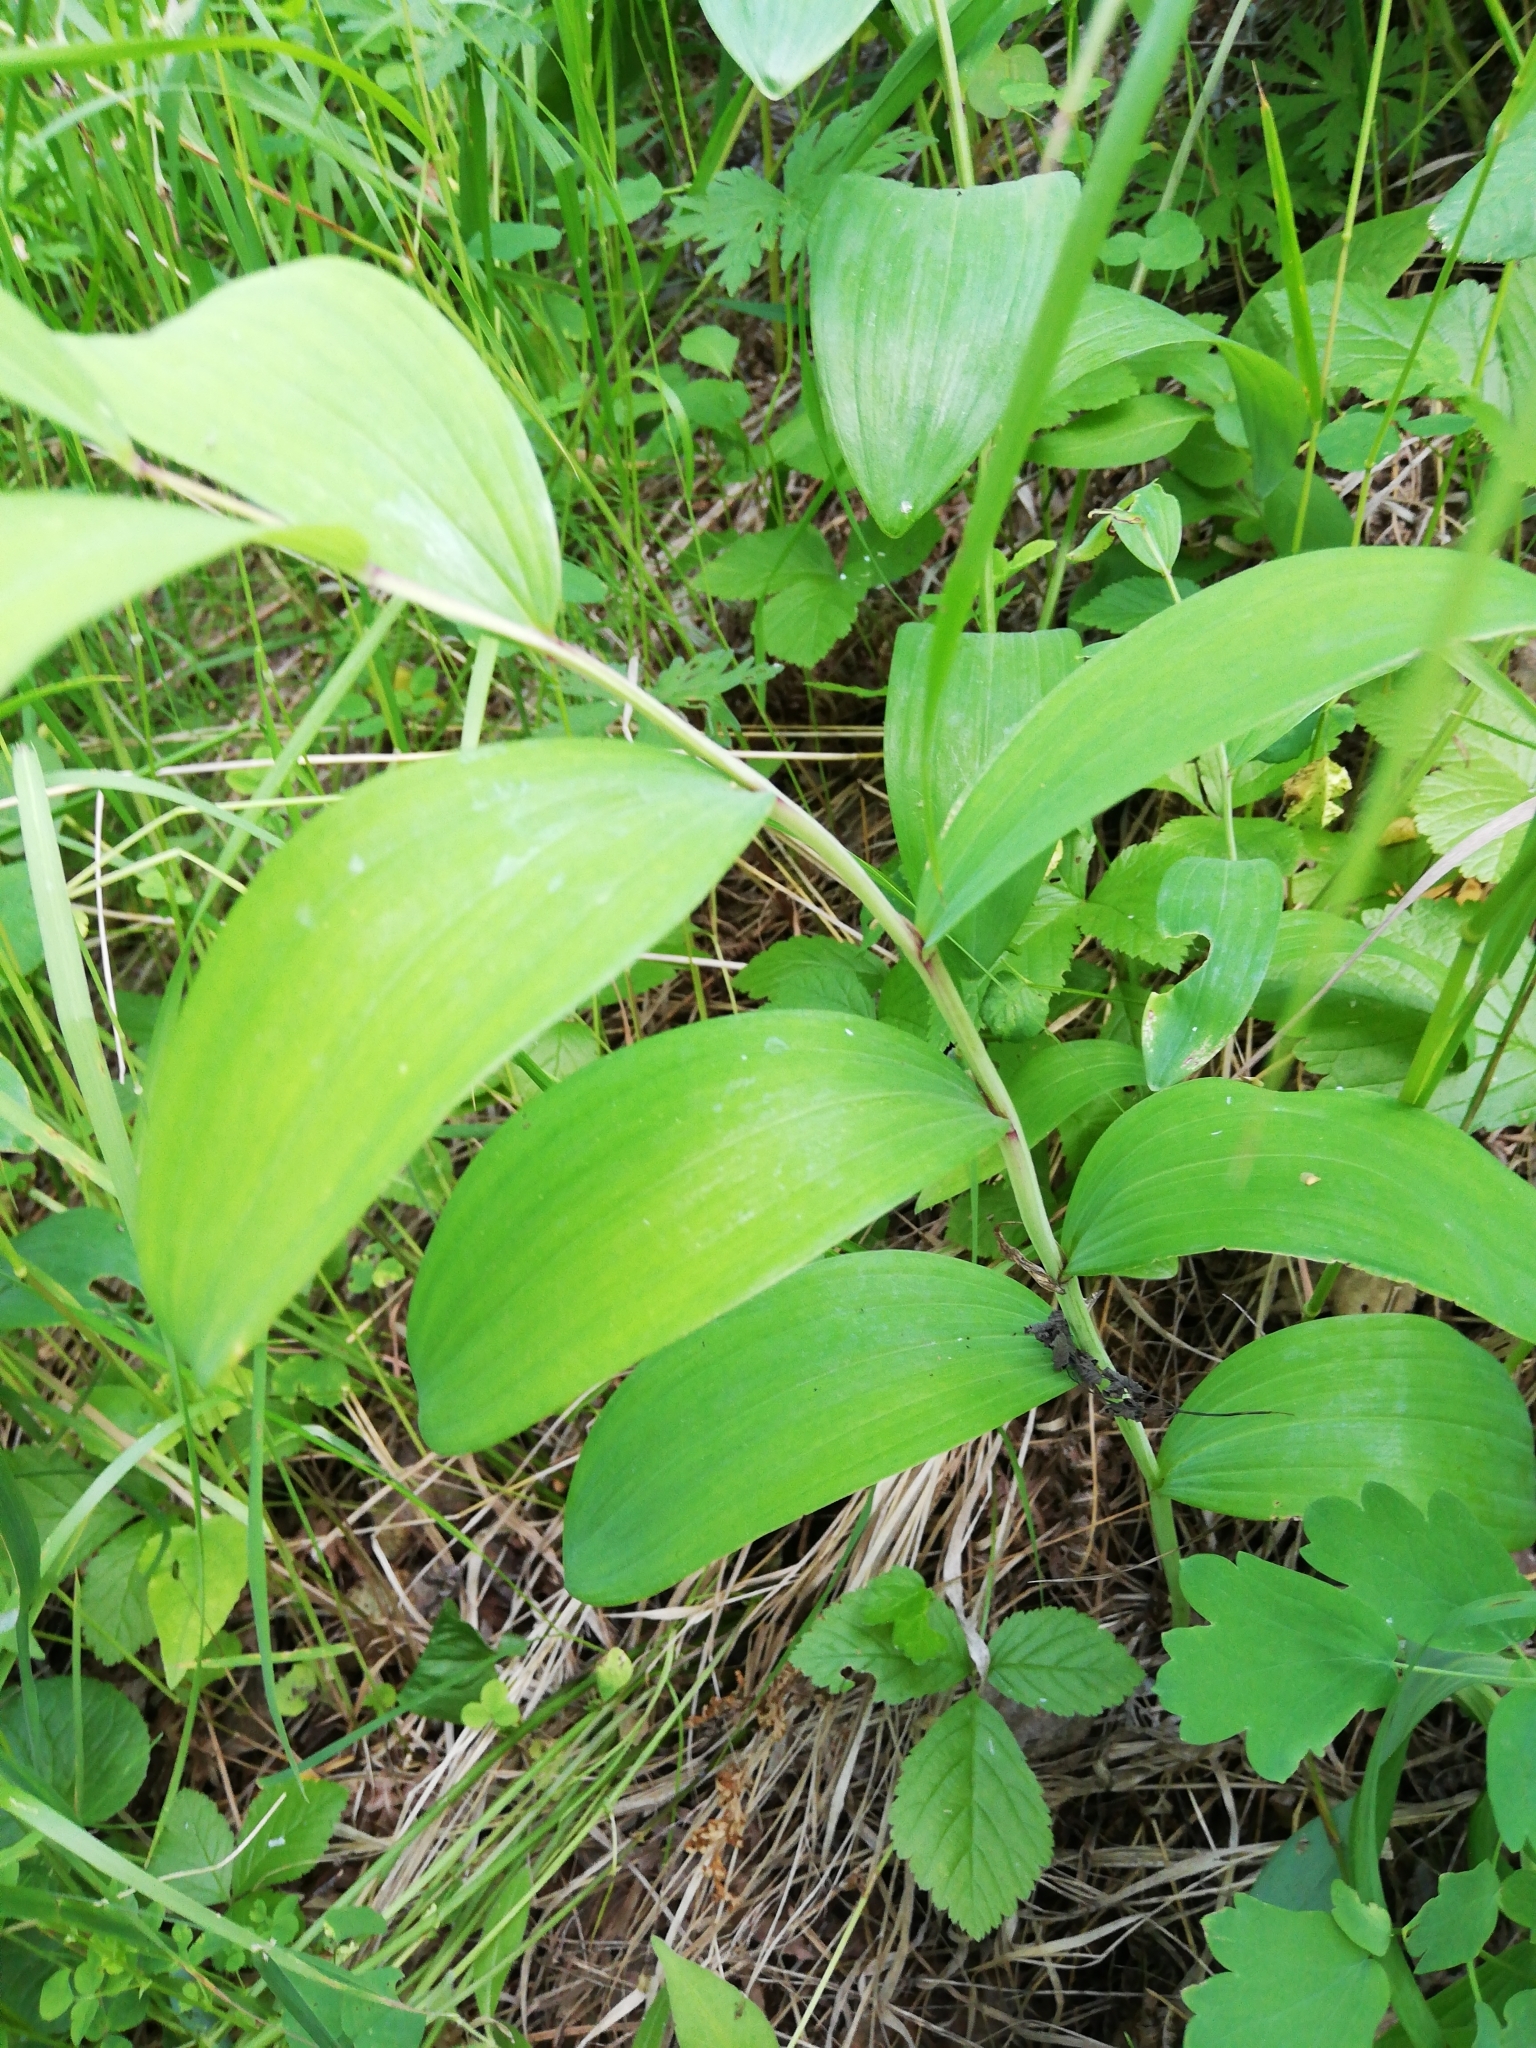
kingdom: Plantae
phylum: Tracheophyta
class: Liliopsida
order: Asparagales
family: Asparagaceae
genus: Polygonatum
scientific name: Polygonatum odoratum
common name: Angular solomon's-seal
